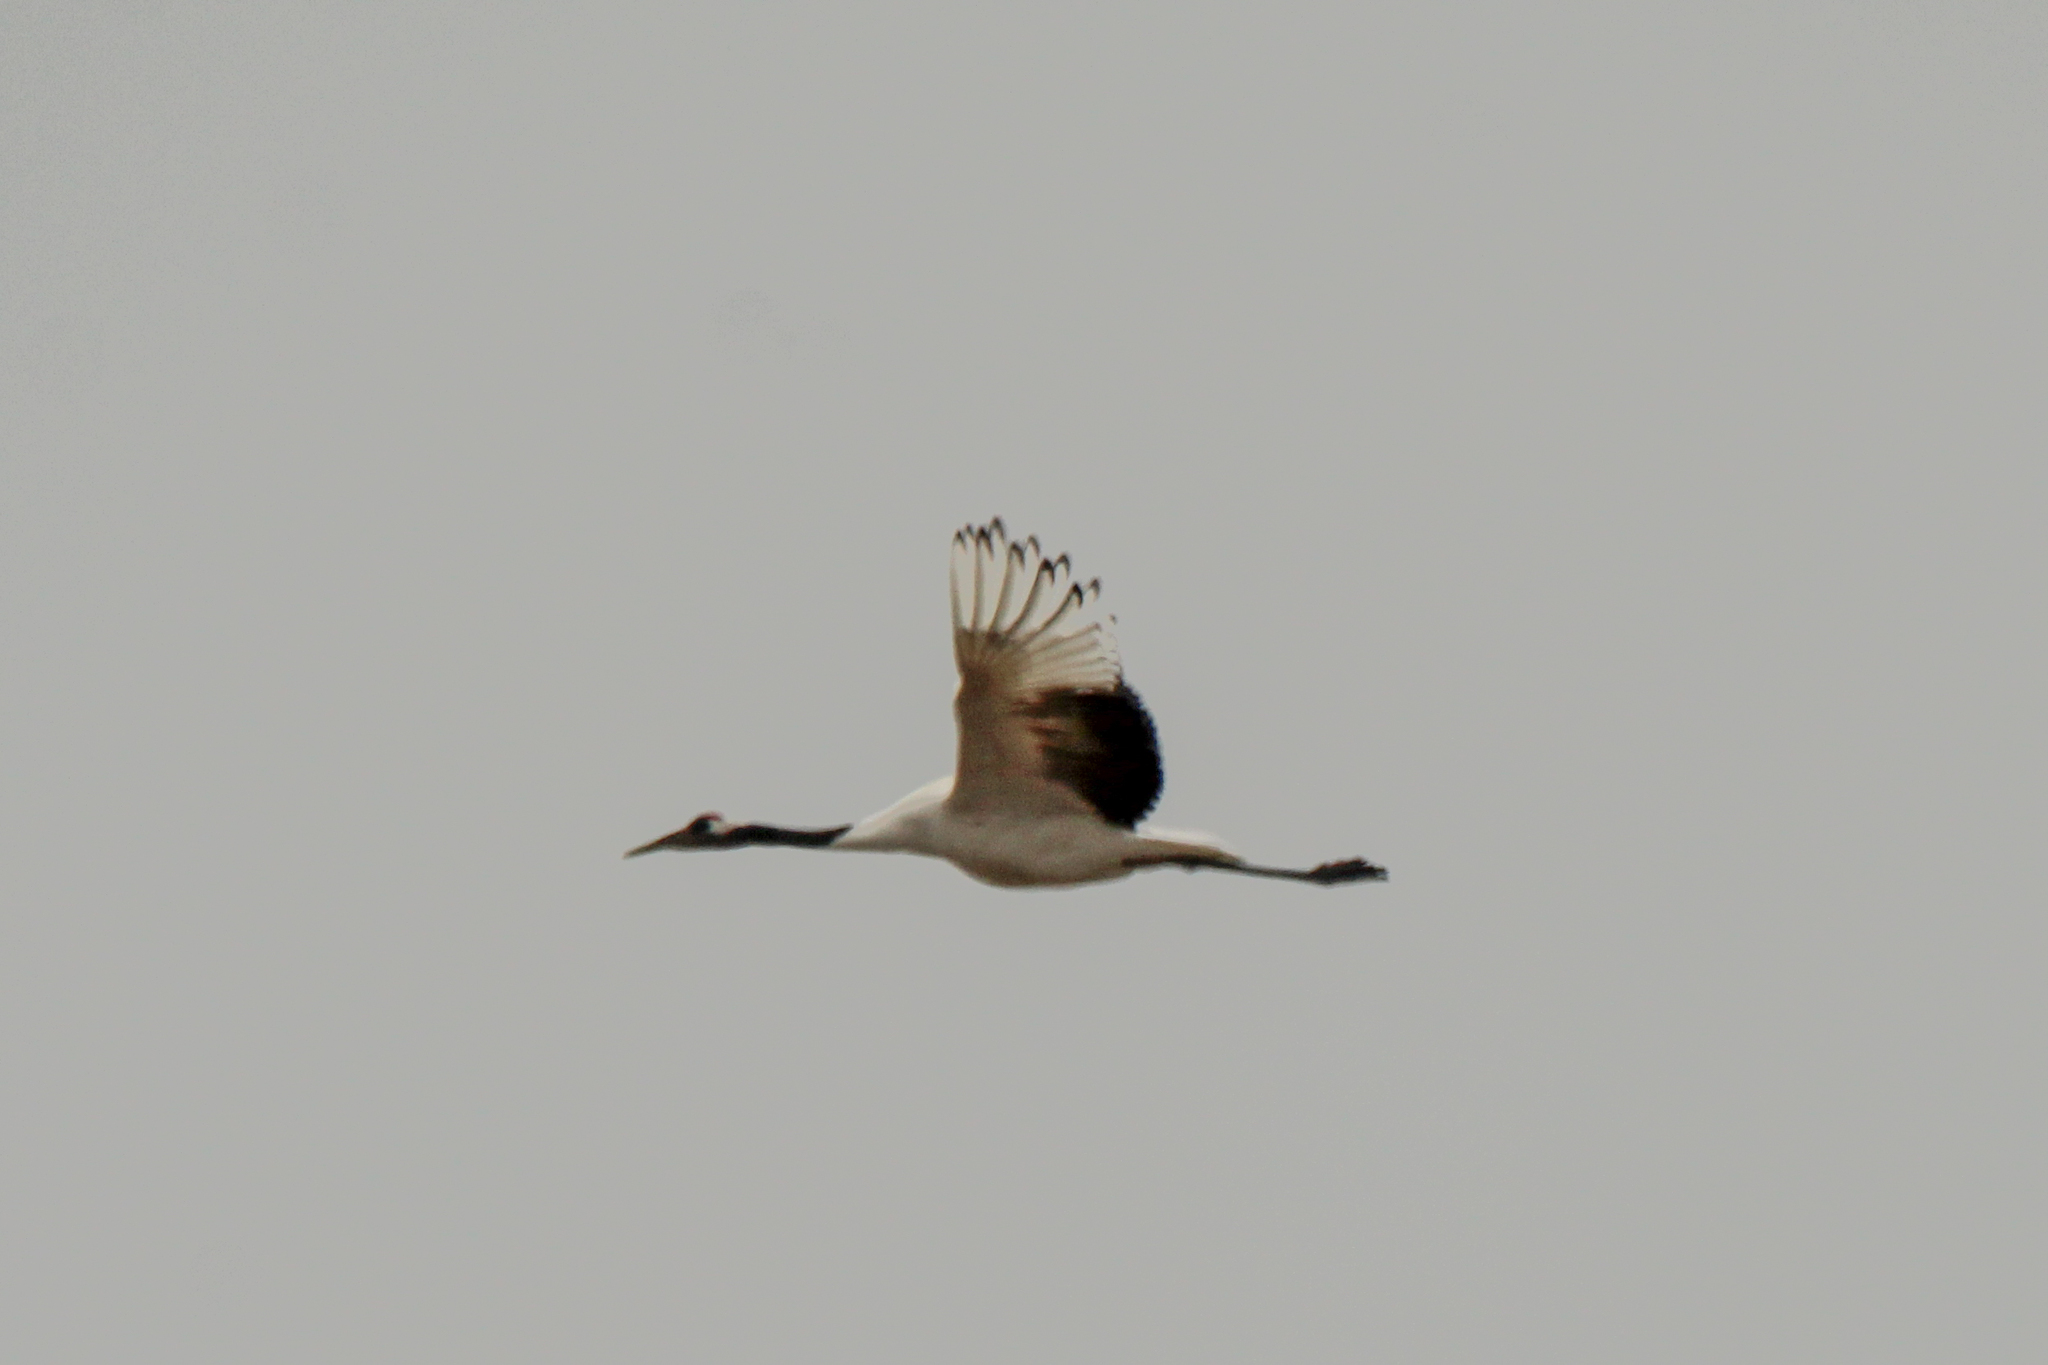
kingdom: Animalia
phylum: Chordata
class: Aves
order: Gruiformes
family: Gruidae
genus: Grus
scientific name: Grus japonensis
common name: Red-crowned crane
